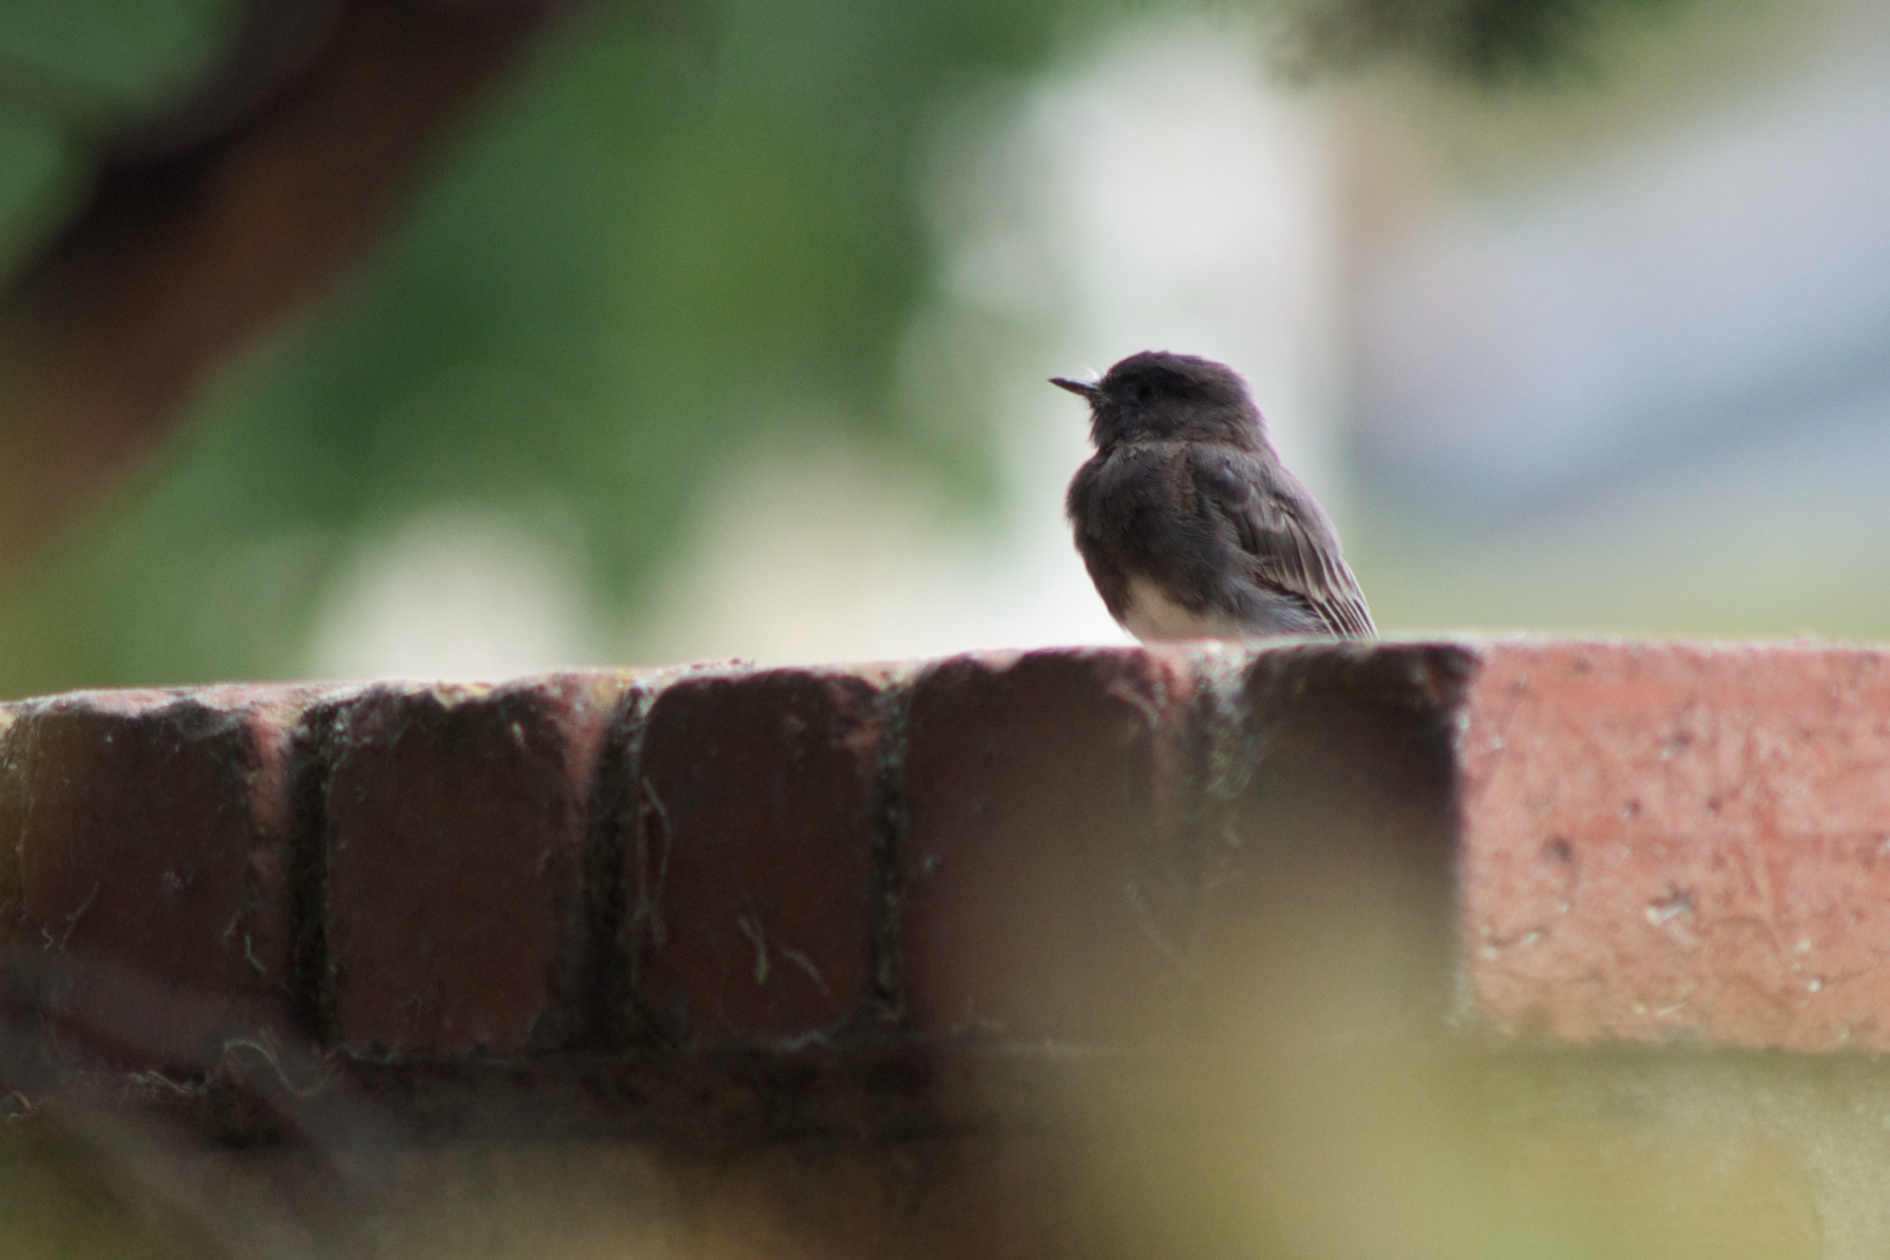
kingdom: Animalia
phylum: Chordata
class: Aves
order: Passeriformes
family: Tyrannidae
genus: Sayornis
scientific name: Sayornis nigricans
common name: Black phoebe
